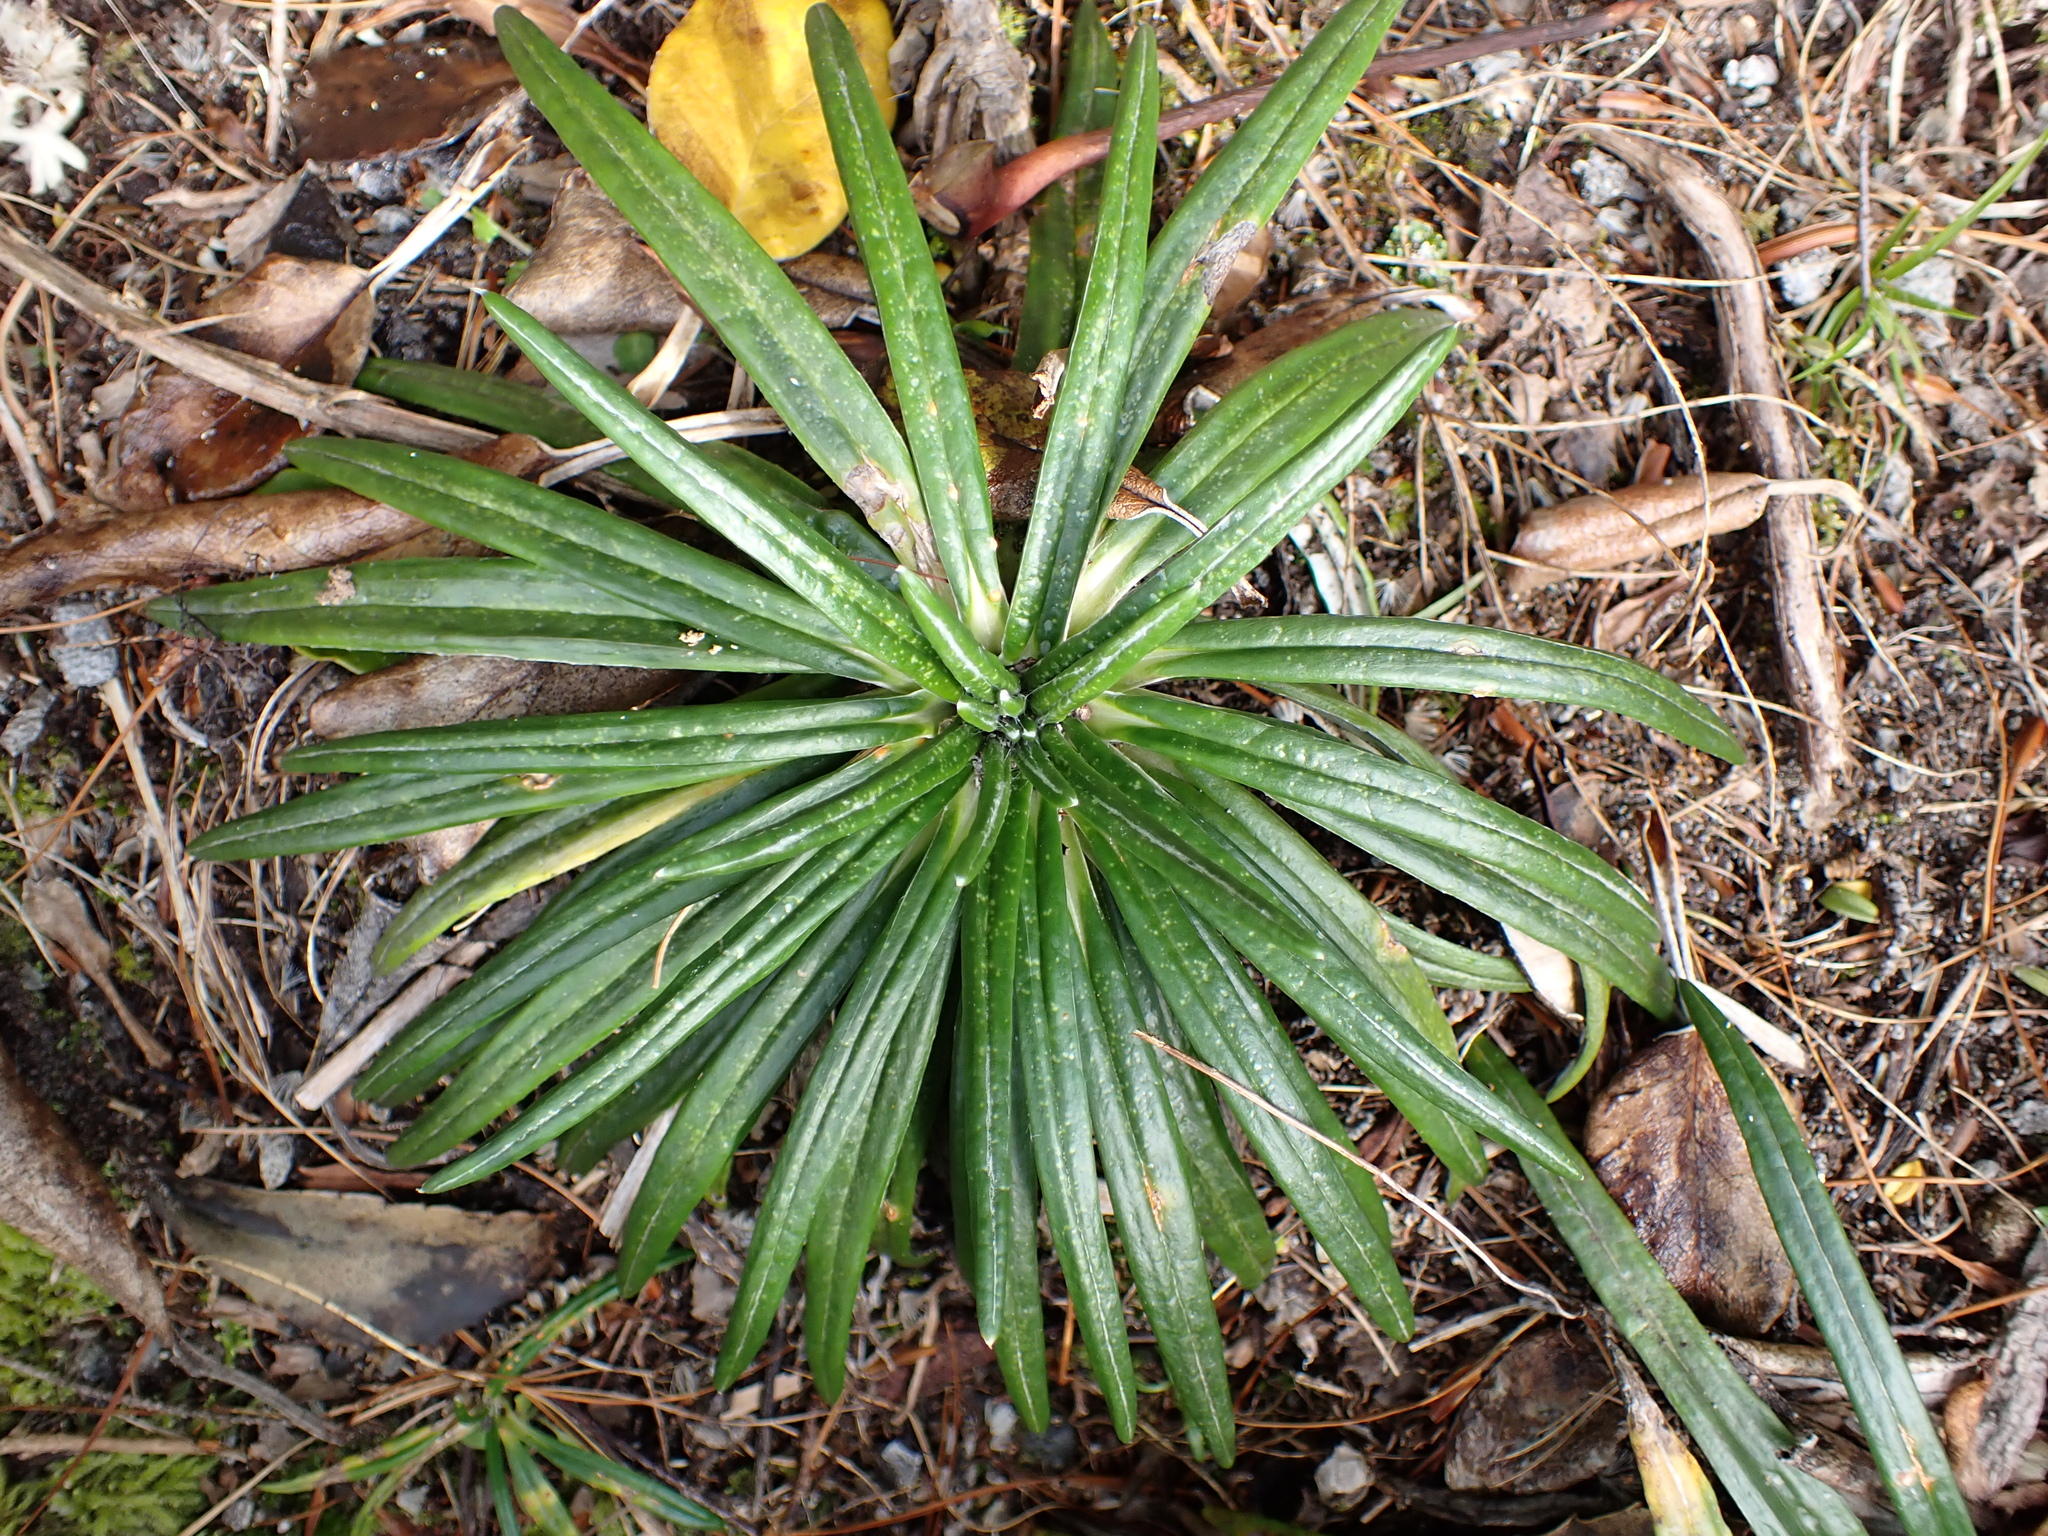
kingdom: Plantae
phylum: Tracheophyta
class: Magnoliopsida
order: Asterales
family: Asteraceae
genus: Celmisia
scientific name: Celmisia major
